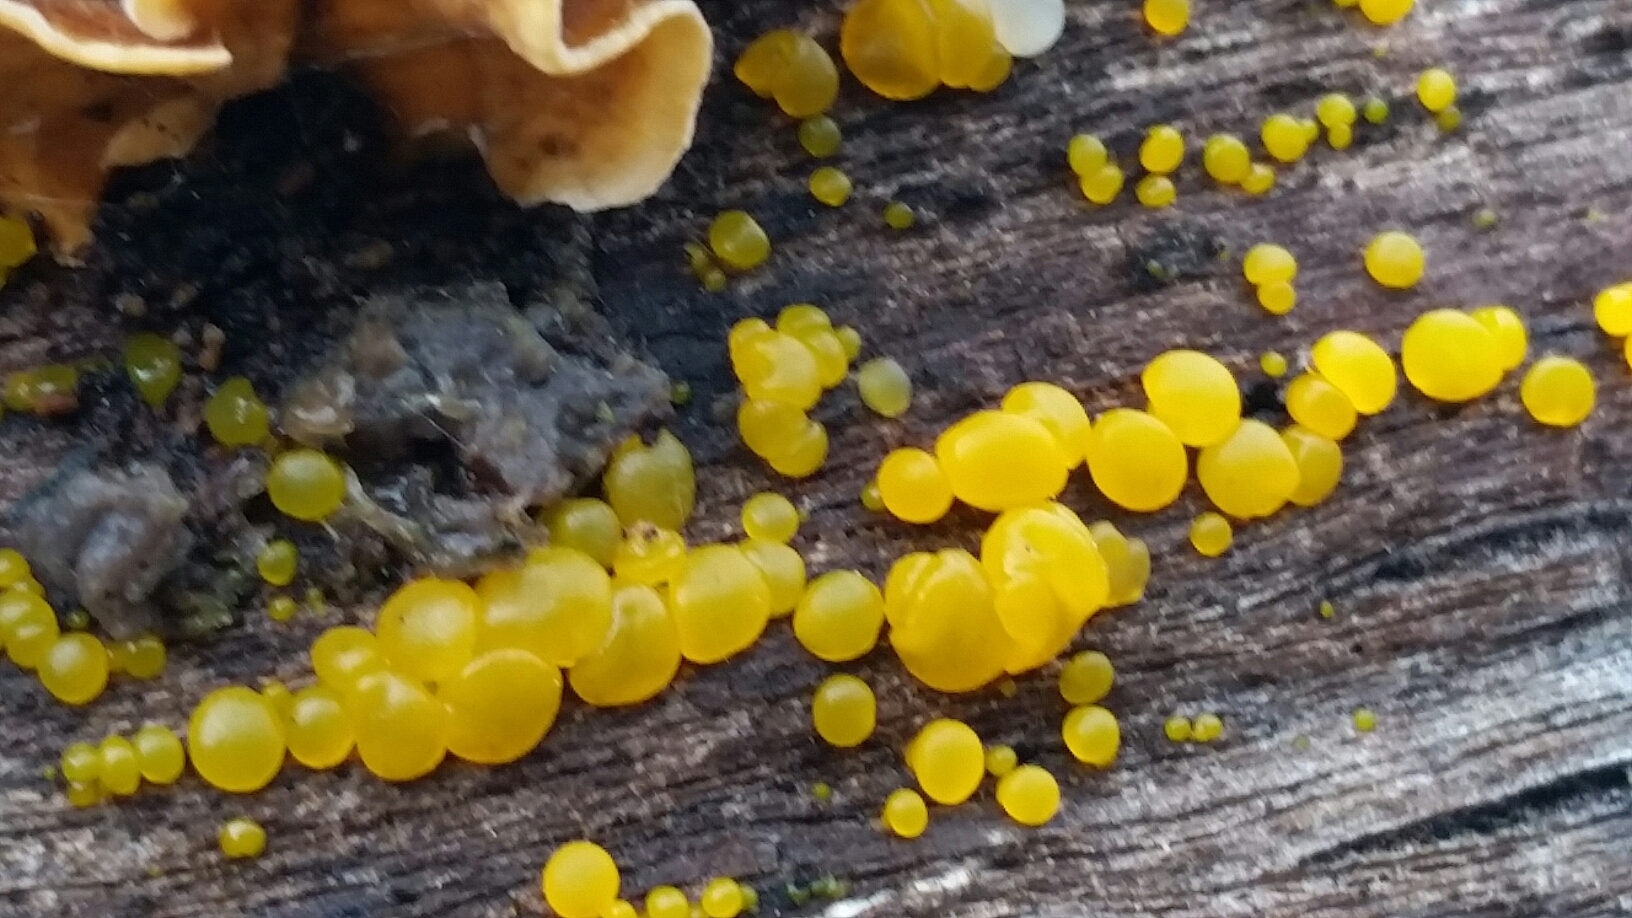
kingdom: Fungi
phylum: Basidiomycota
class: Dacrymycetes
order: Dacrymycetales
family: Dacrymycetaceae
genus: Dacrymyces
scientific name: Dacrymyces stillatus
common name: Common jelly spot
